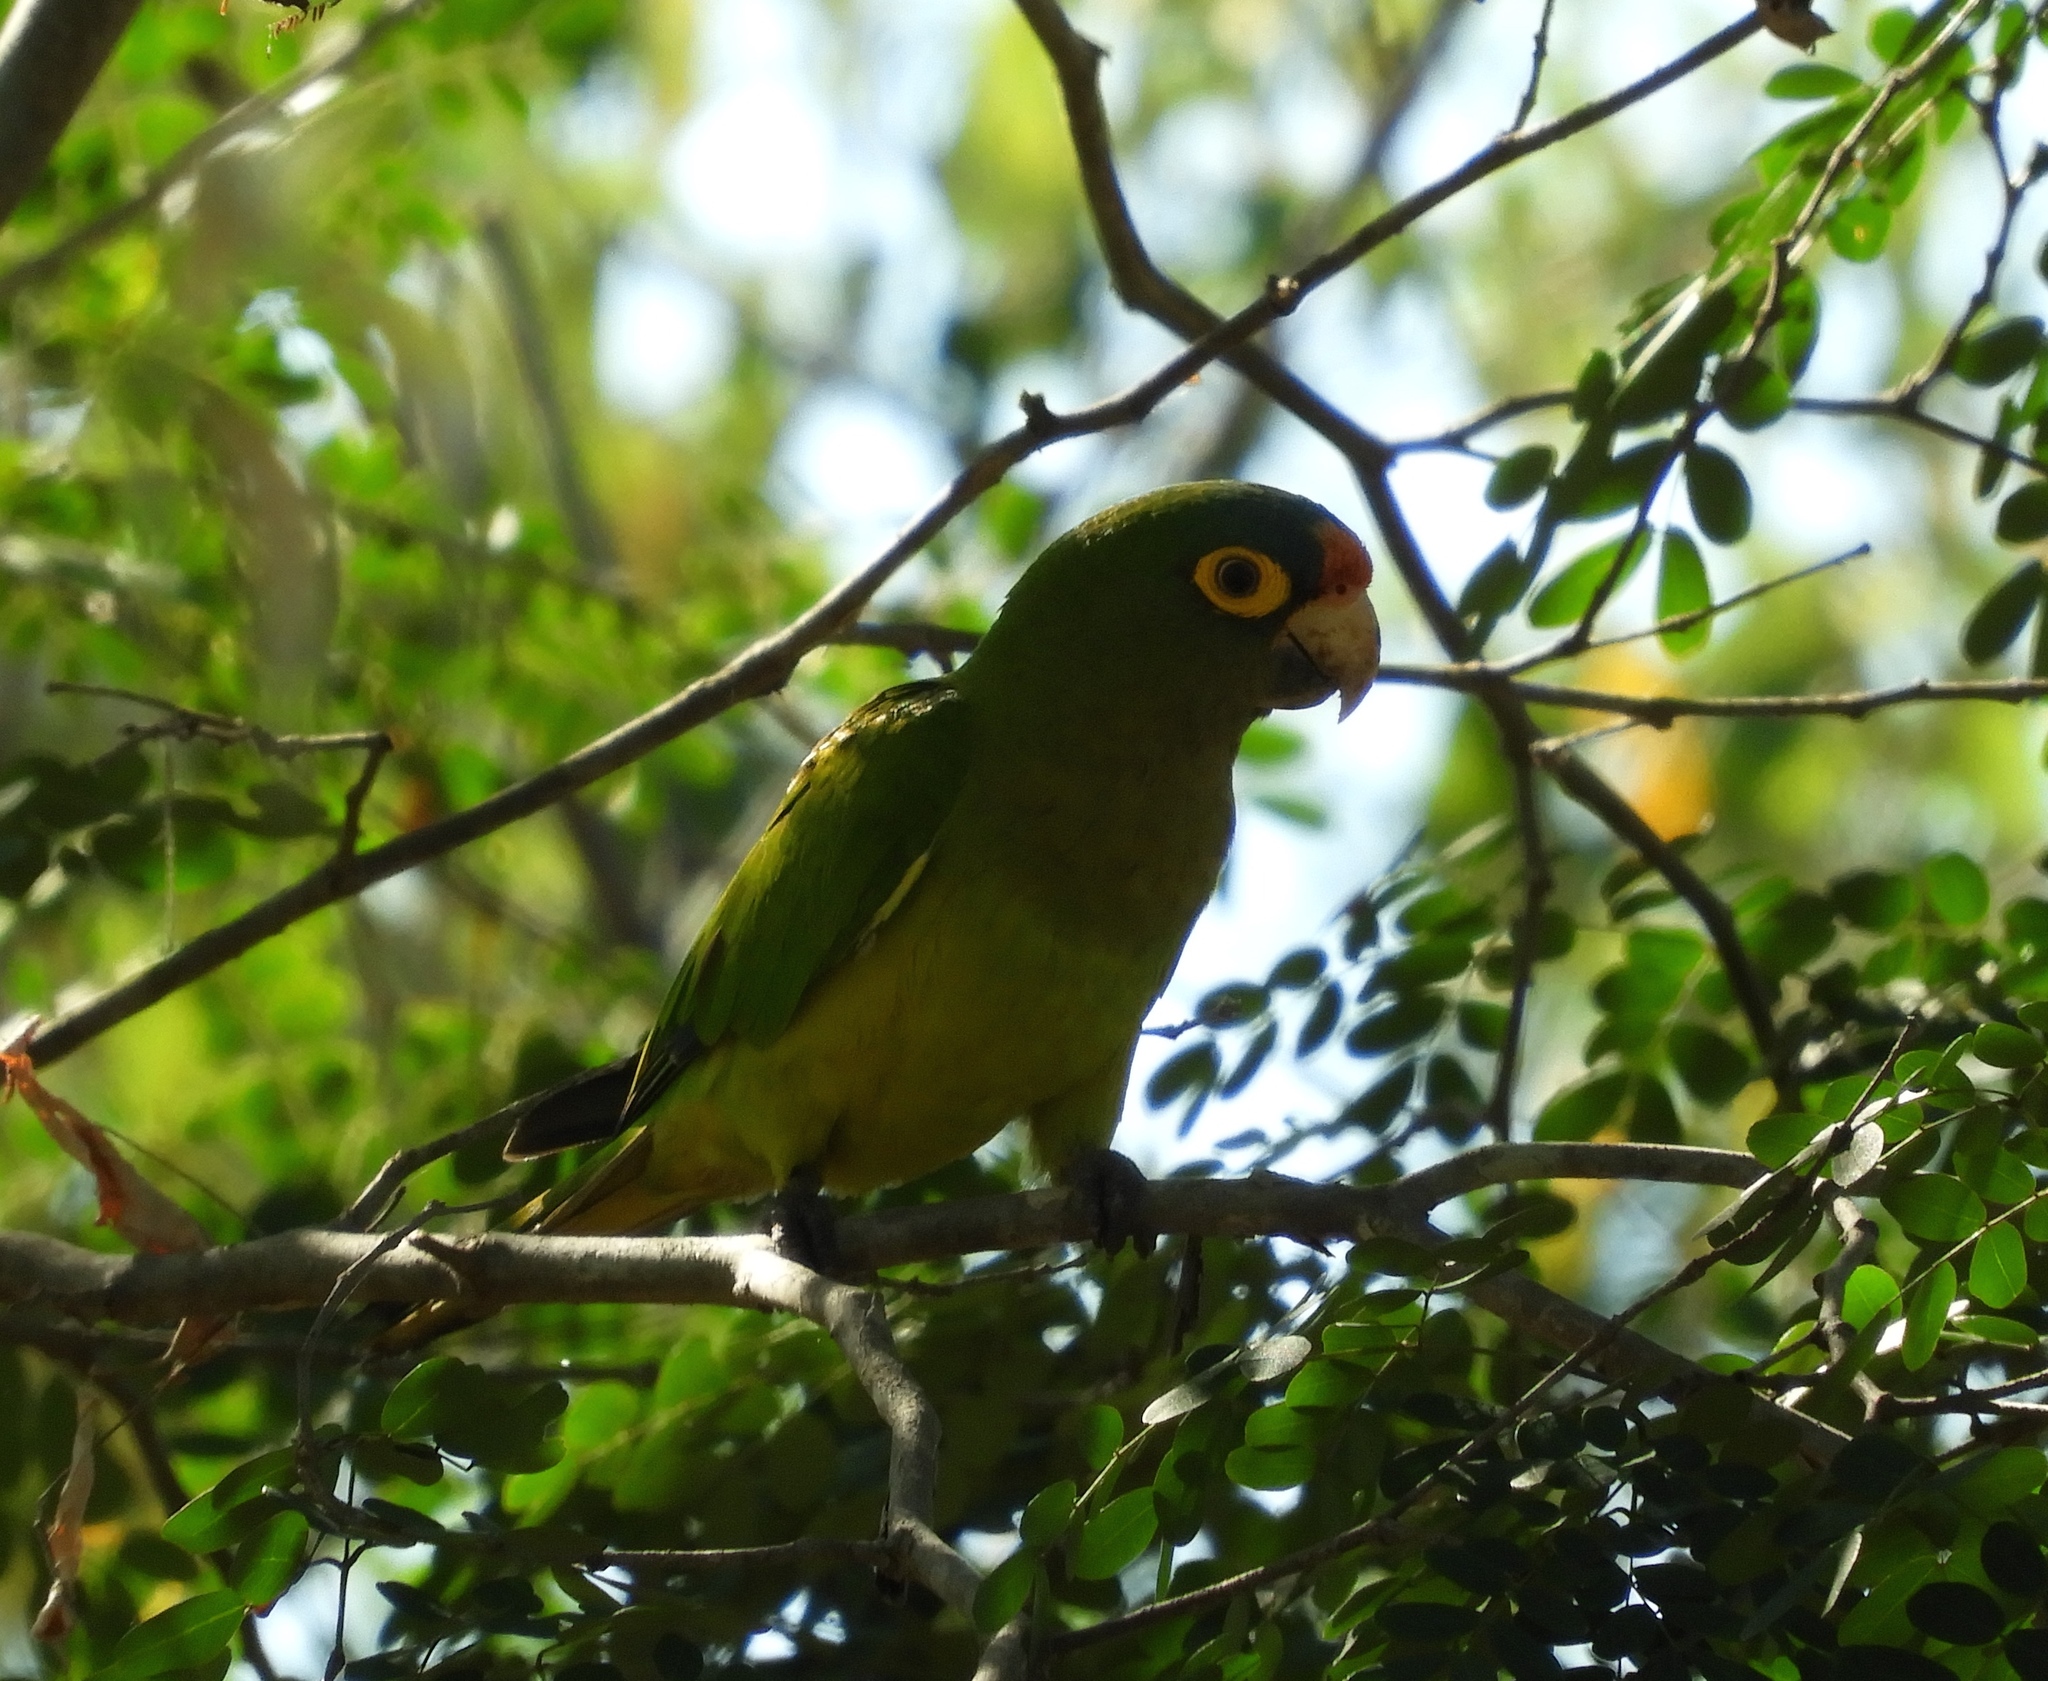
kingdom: Animalia
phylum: Chordata
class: Aves
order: Psittaciformes
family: Psittacidae
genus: Aratinga
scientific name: Aratinga canicularis
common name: Orange-fronted parakeet
